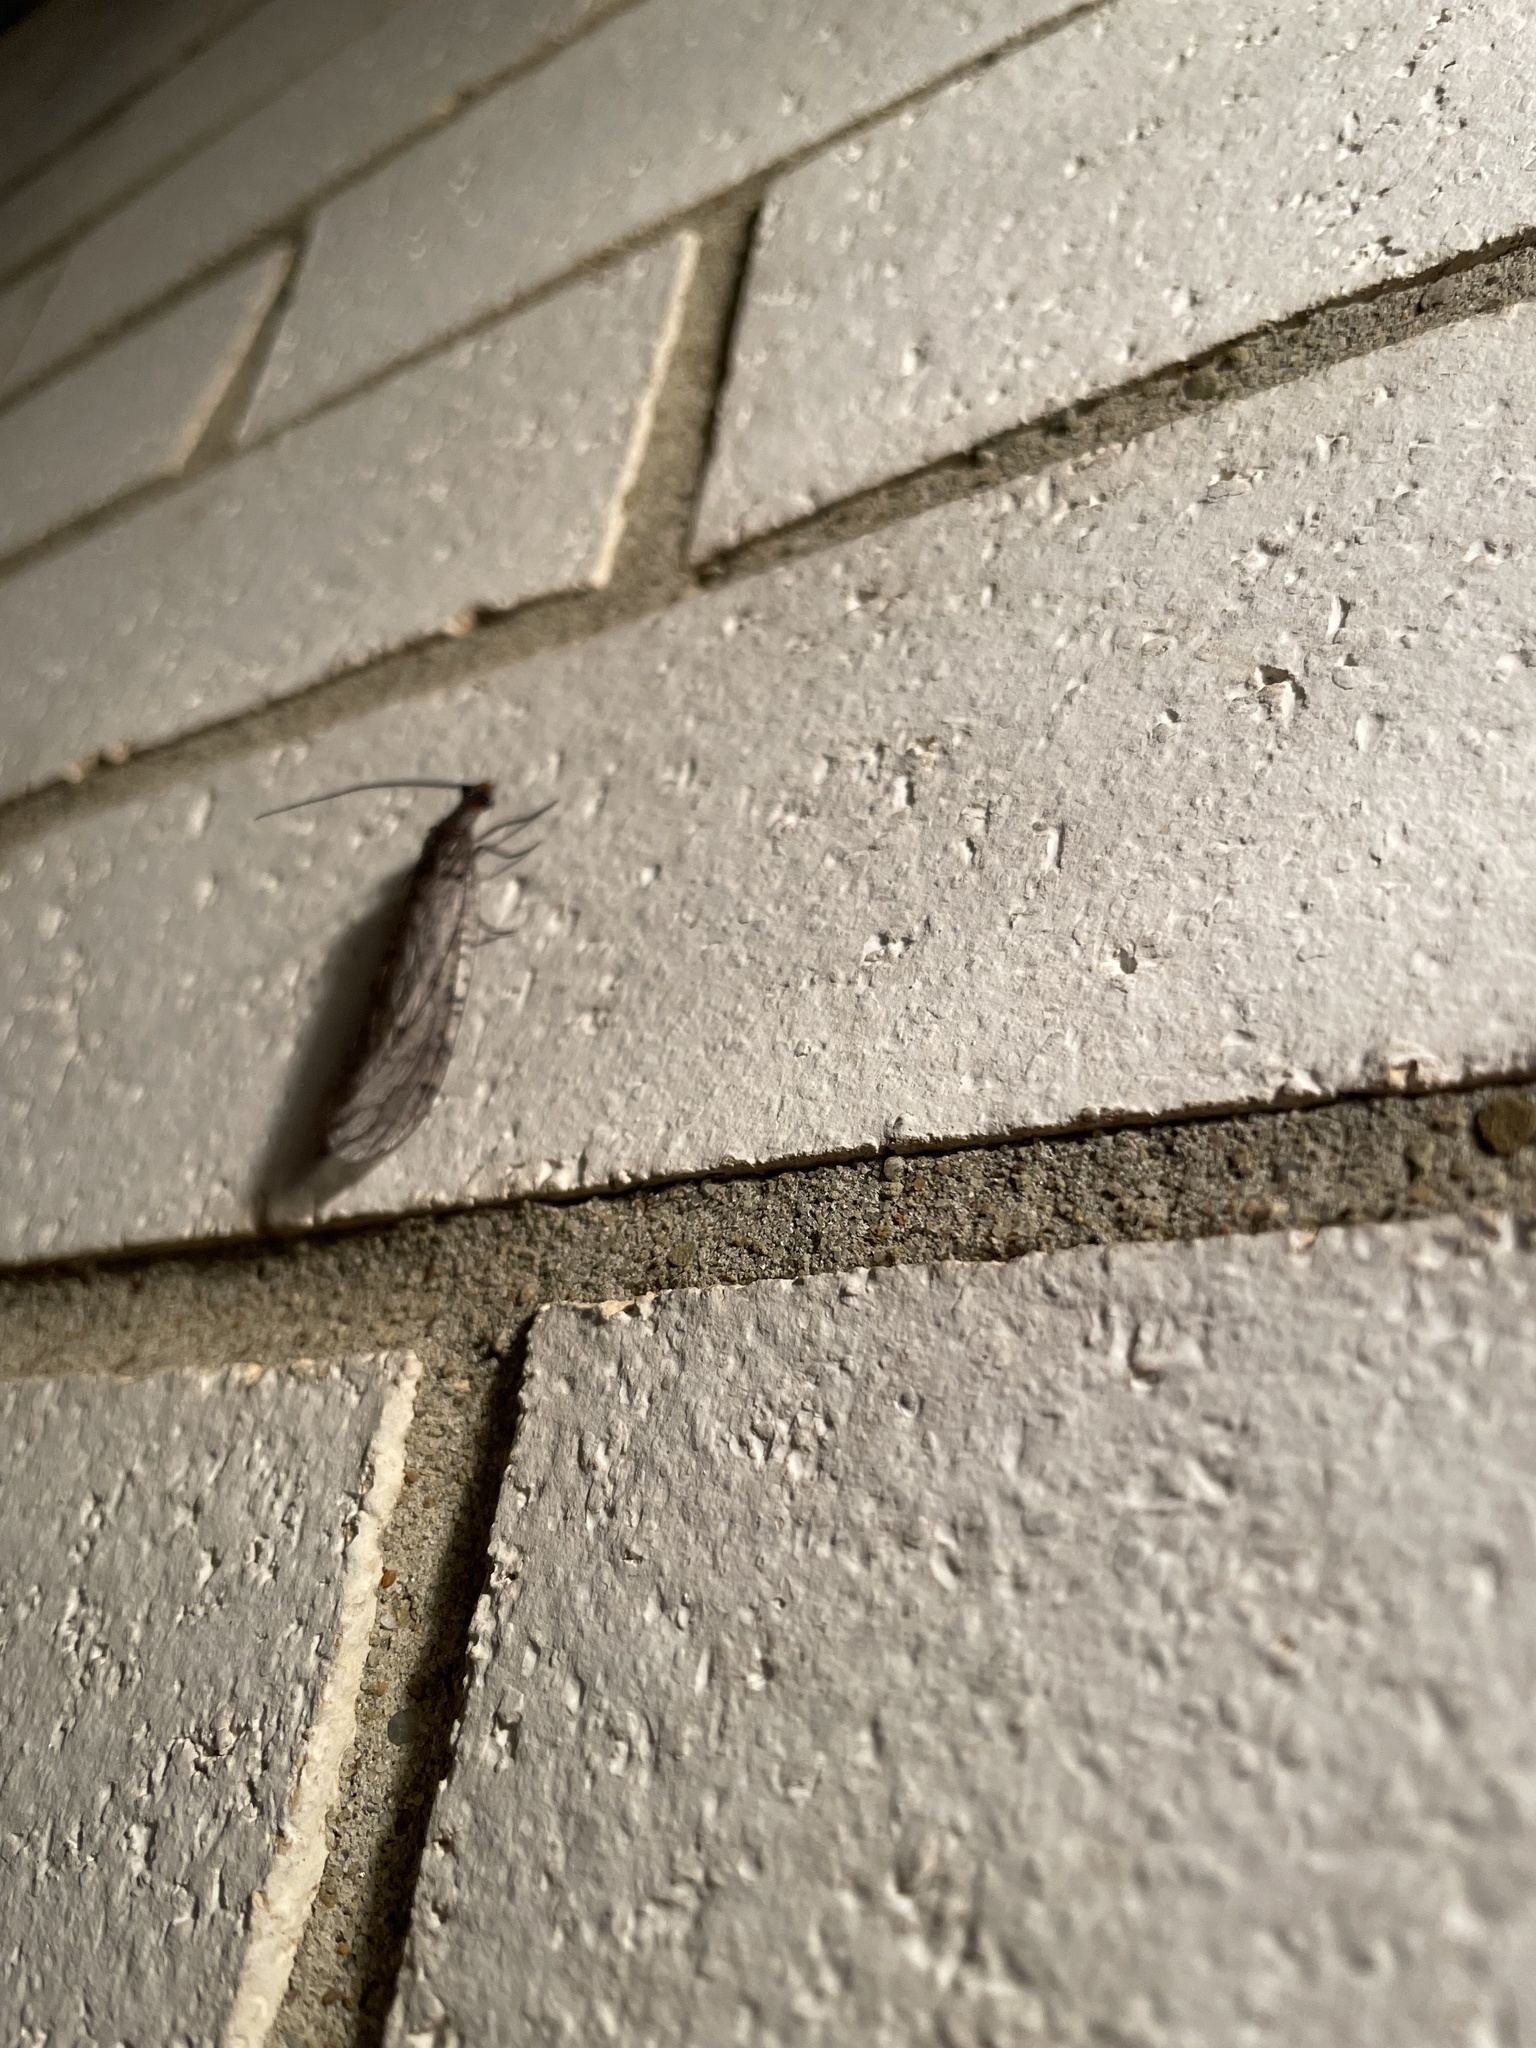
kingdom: Animalia
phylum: Arthropoda
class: Insecta
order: Megaloptera
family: Corydalidae
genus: Neohermes
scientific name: Neohermes concolor
